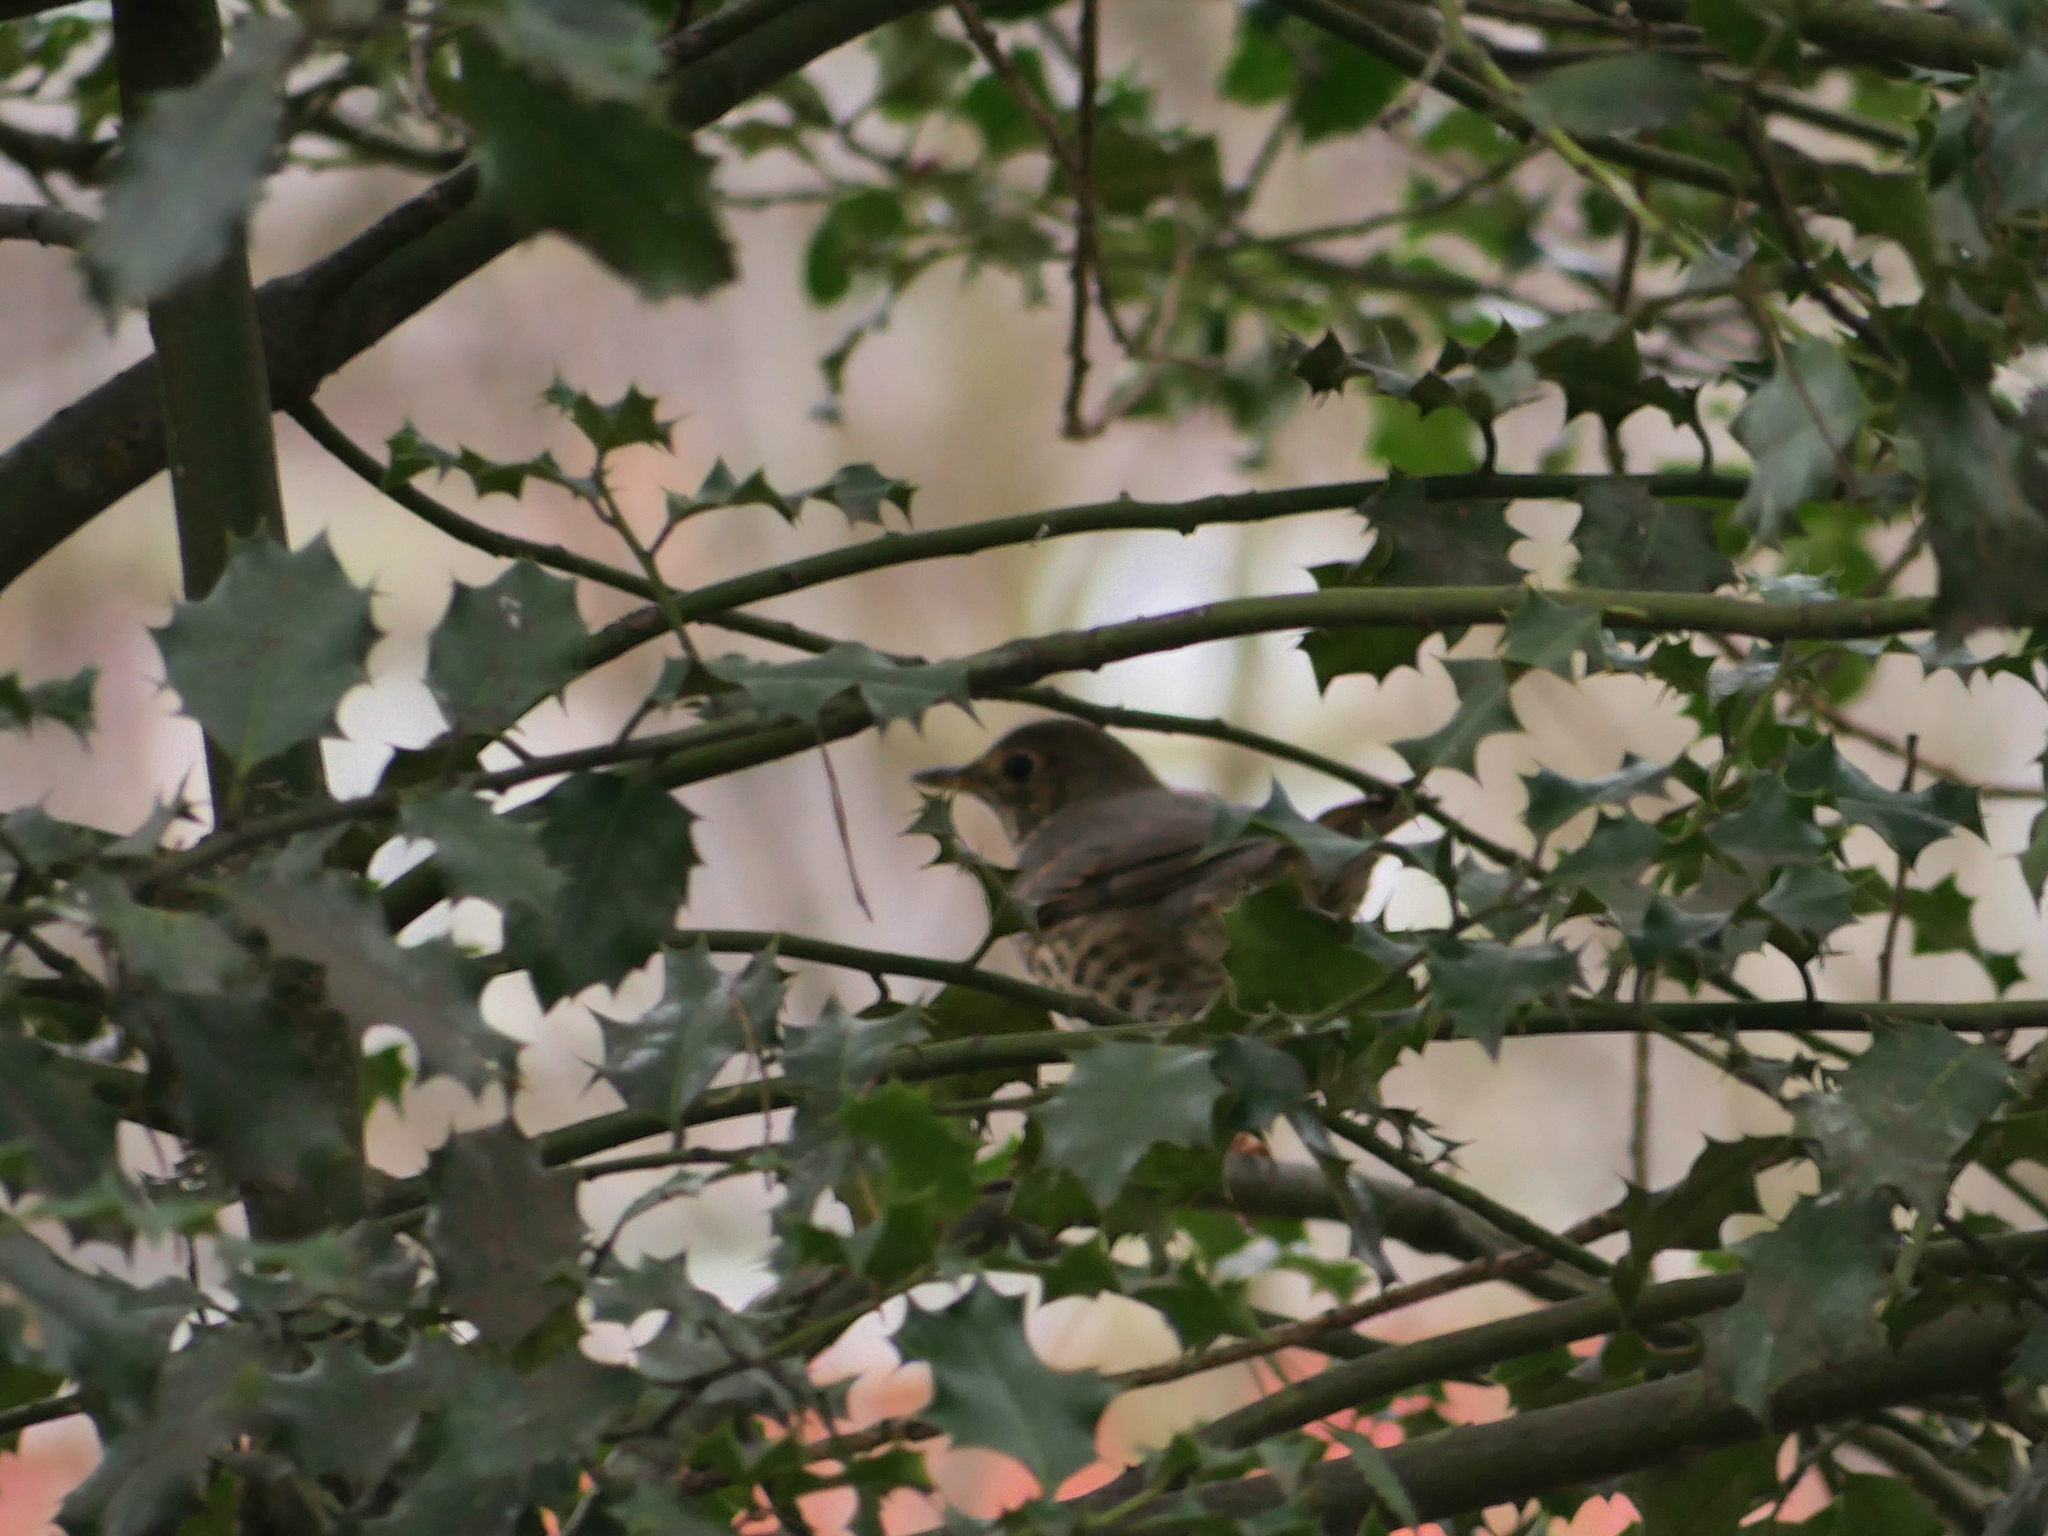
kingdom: Animalia
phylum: Chordata
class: Aves
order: Passeriformes
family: Turdidae
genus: Turdus
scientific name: Turdus philomelos
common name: Song thrush
